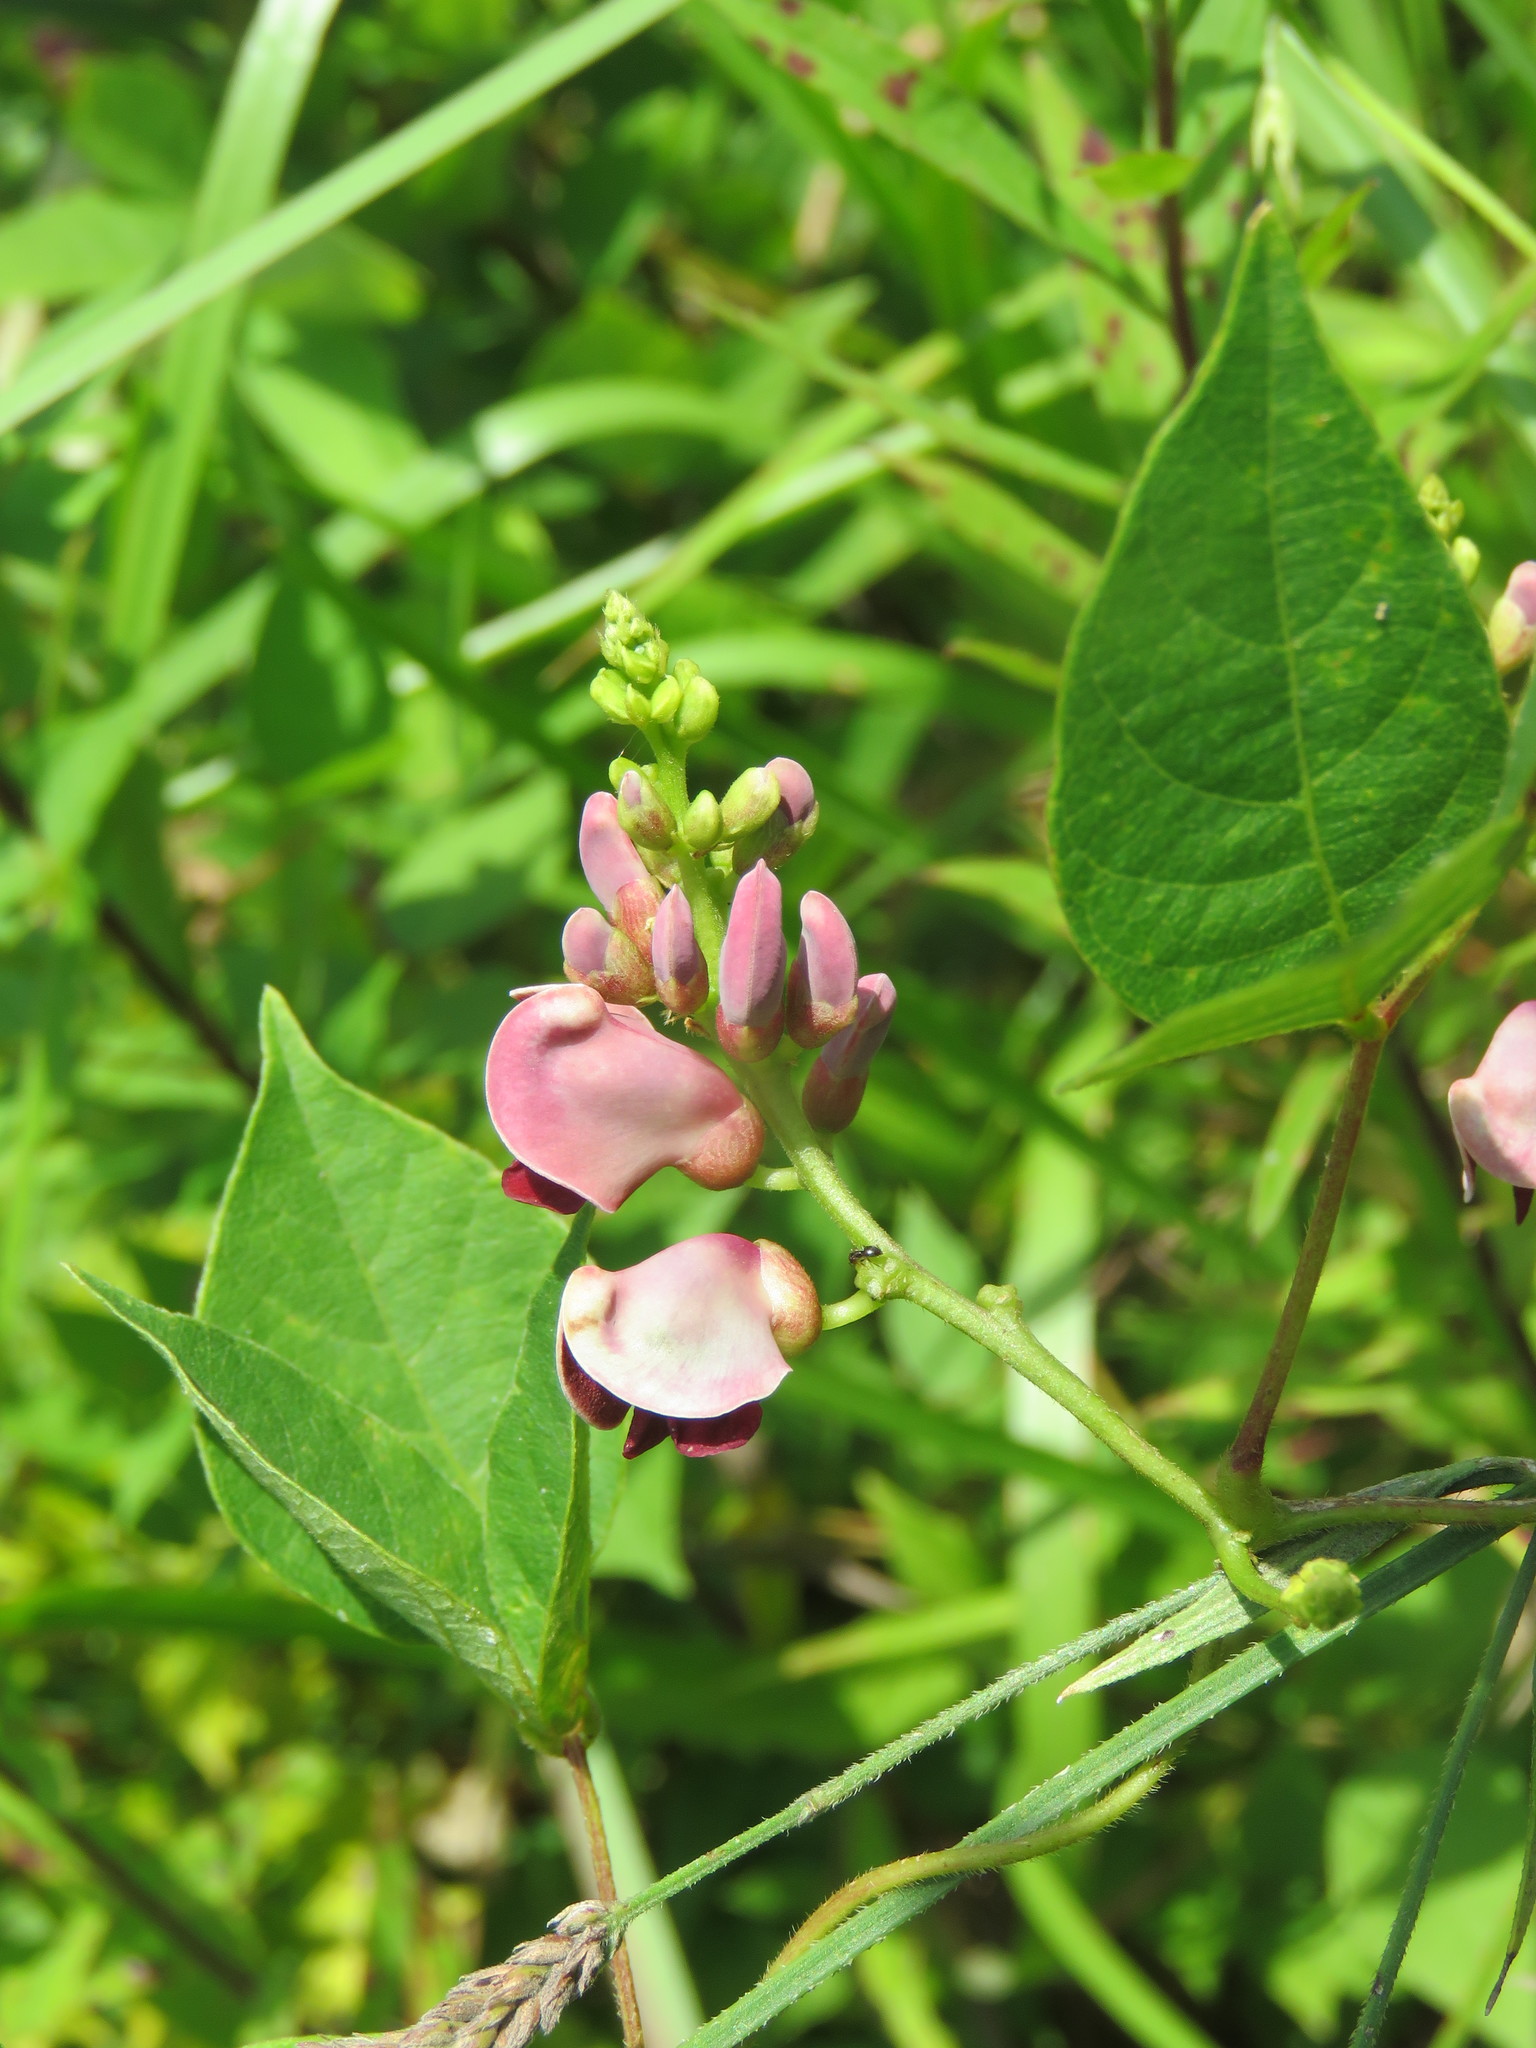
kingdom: Plantae
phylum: Tracheophyta
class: Magnoliopsida
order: Fabales
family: Fabaceae
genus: Apios
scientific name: Apios americana
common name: American potato-bean
